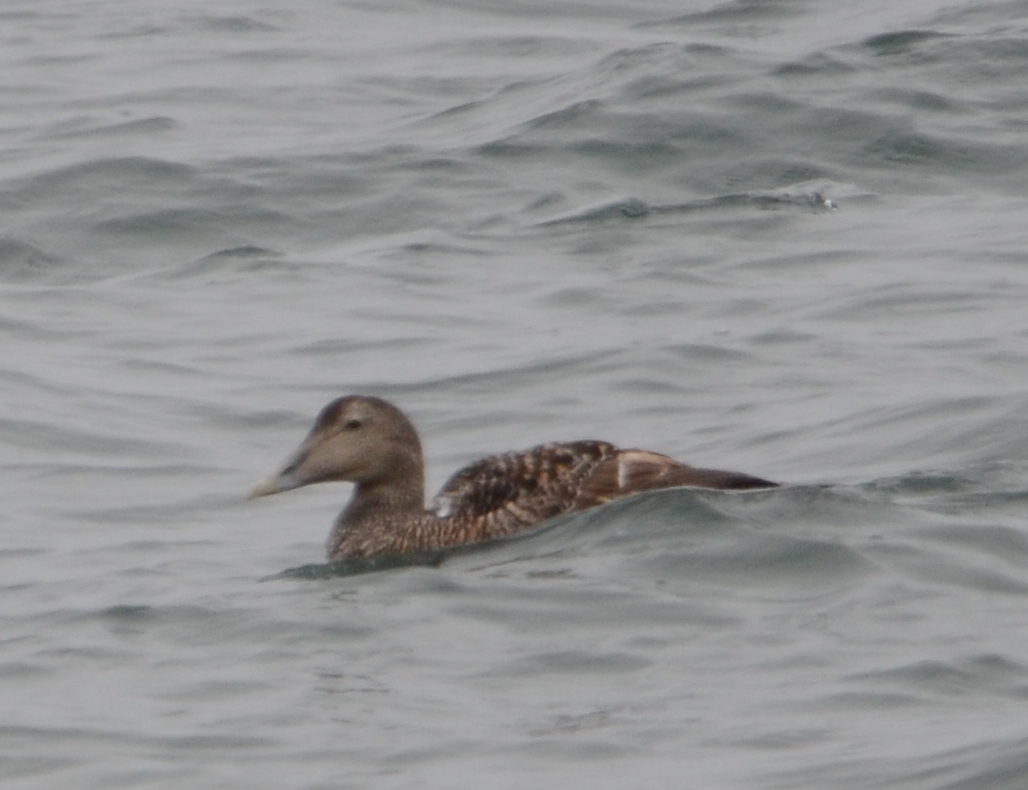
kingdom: Animalia
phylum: Chordata
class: Aves
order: Anseriformes
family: Anatidae
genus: Somateria
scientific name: Somateria mollissima
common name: Common eider
